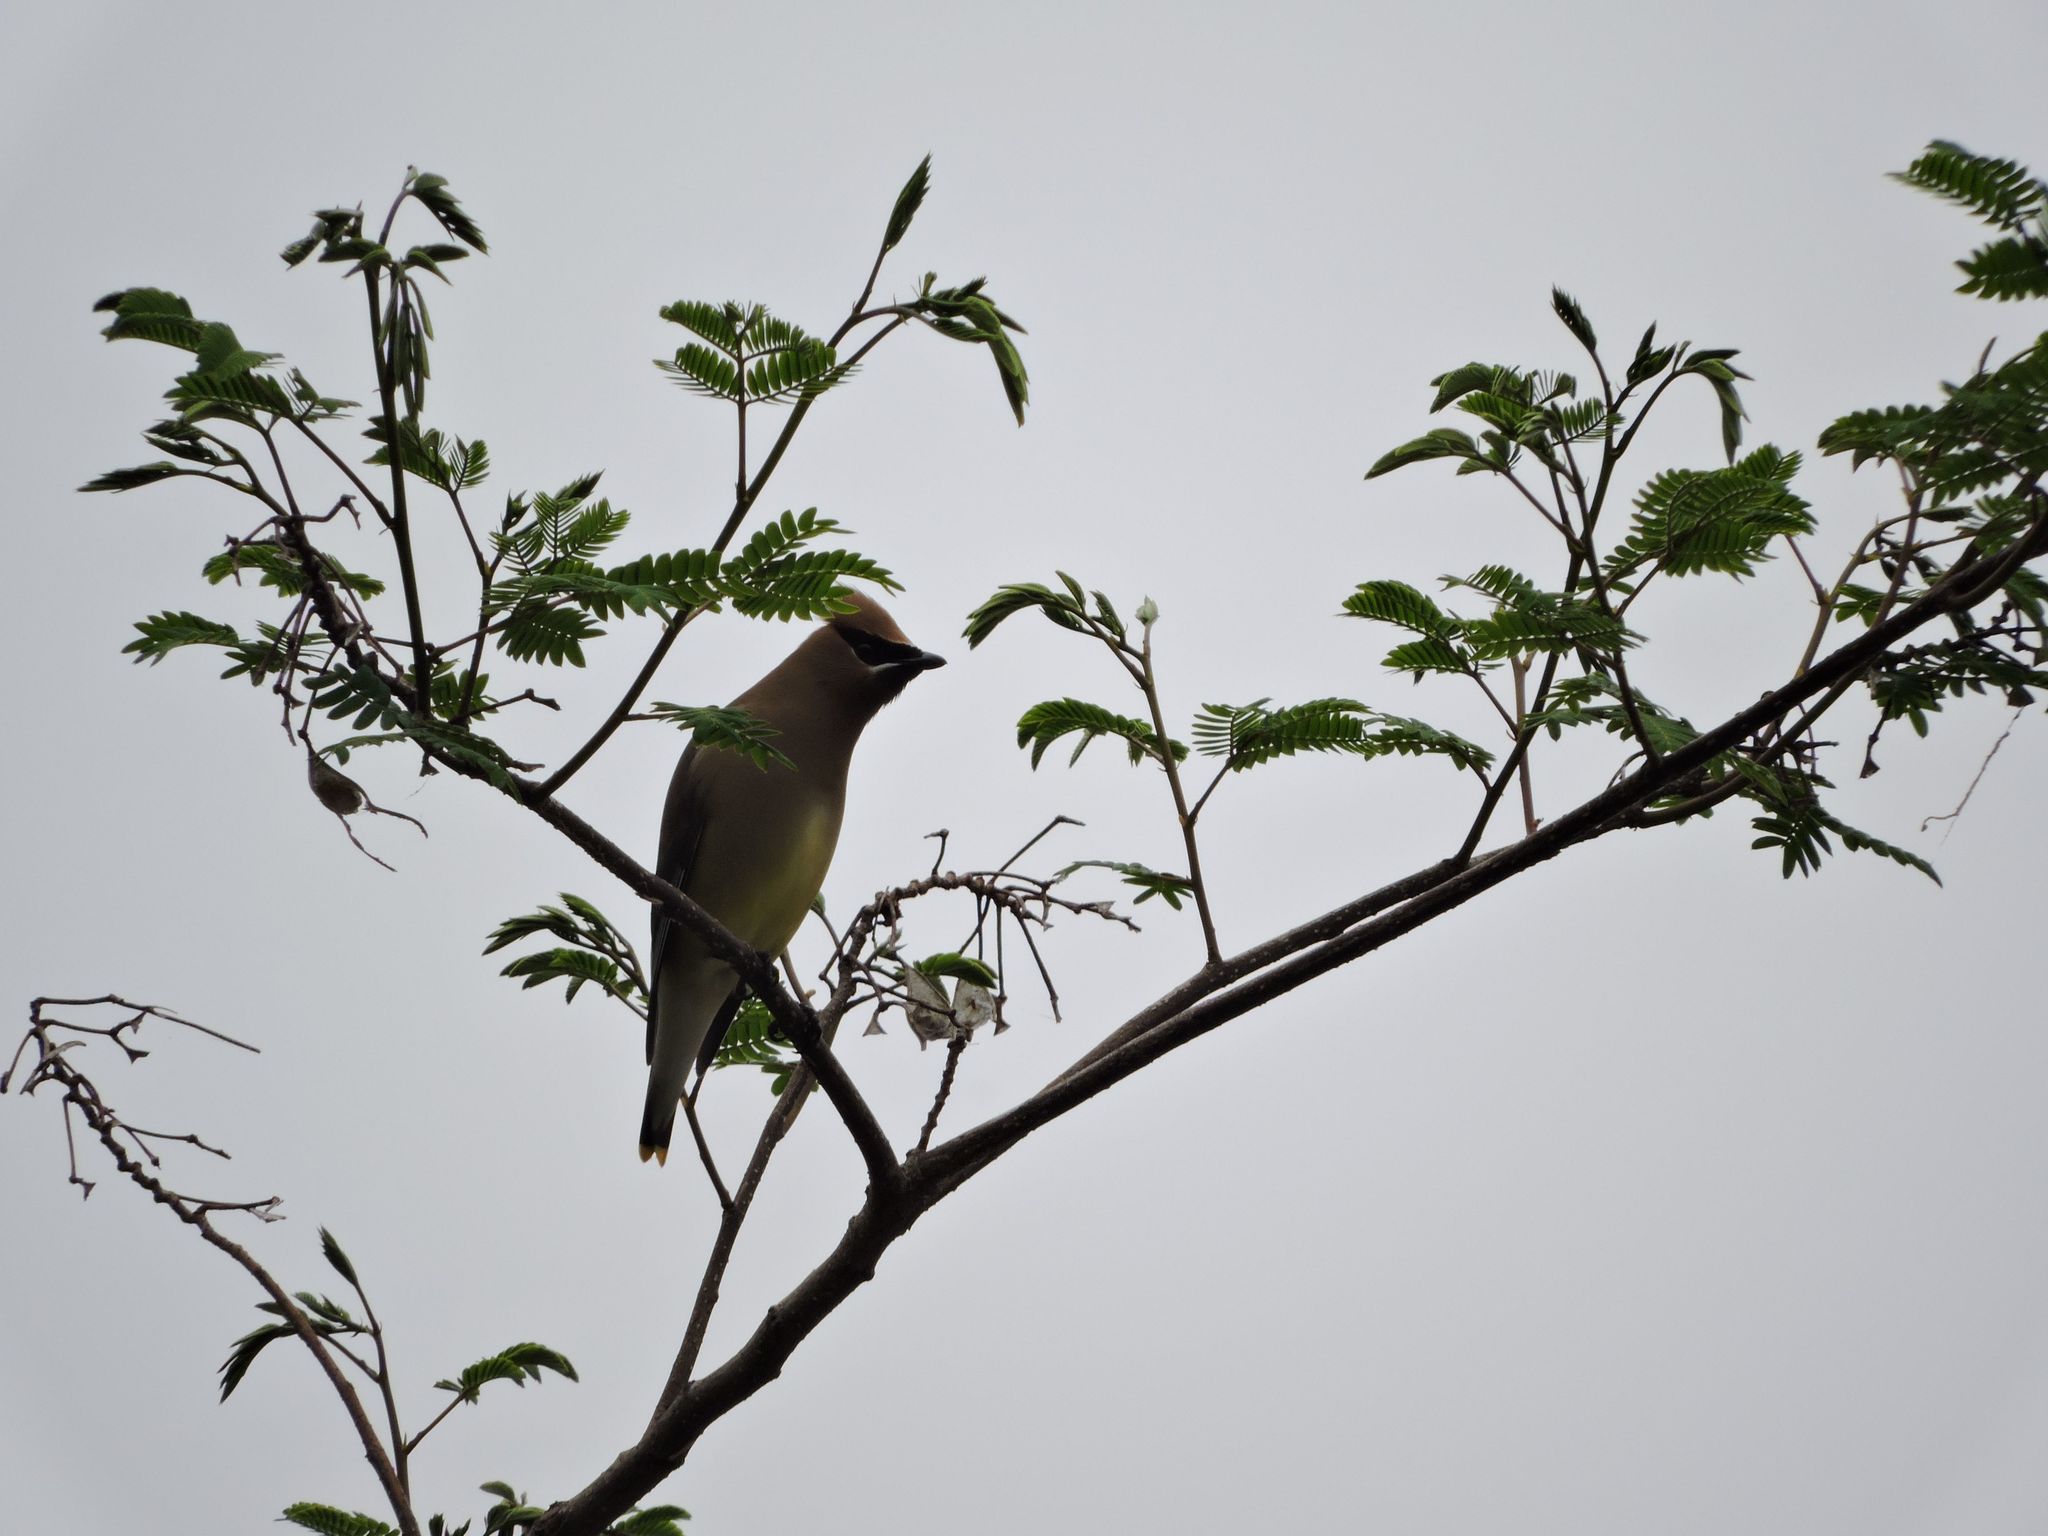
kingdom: Animalia
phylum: Chordata
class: Aves
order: Passeriformes
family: Bombycillidae
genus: Bombycilla
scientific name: Bombycilla cedrorum
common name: Cedar waxwing
